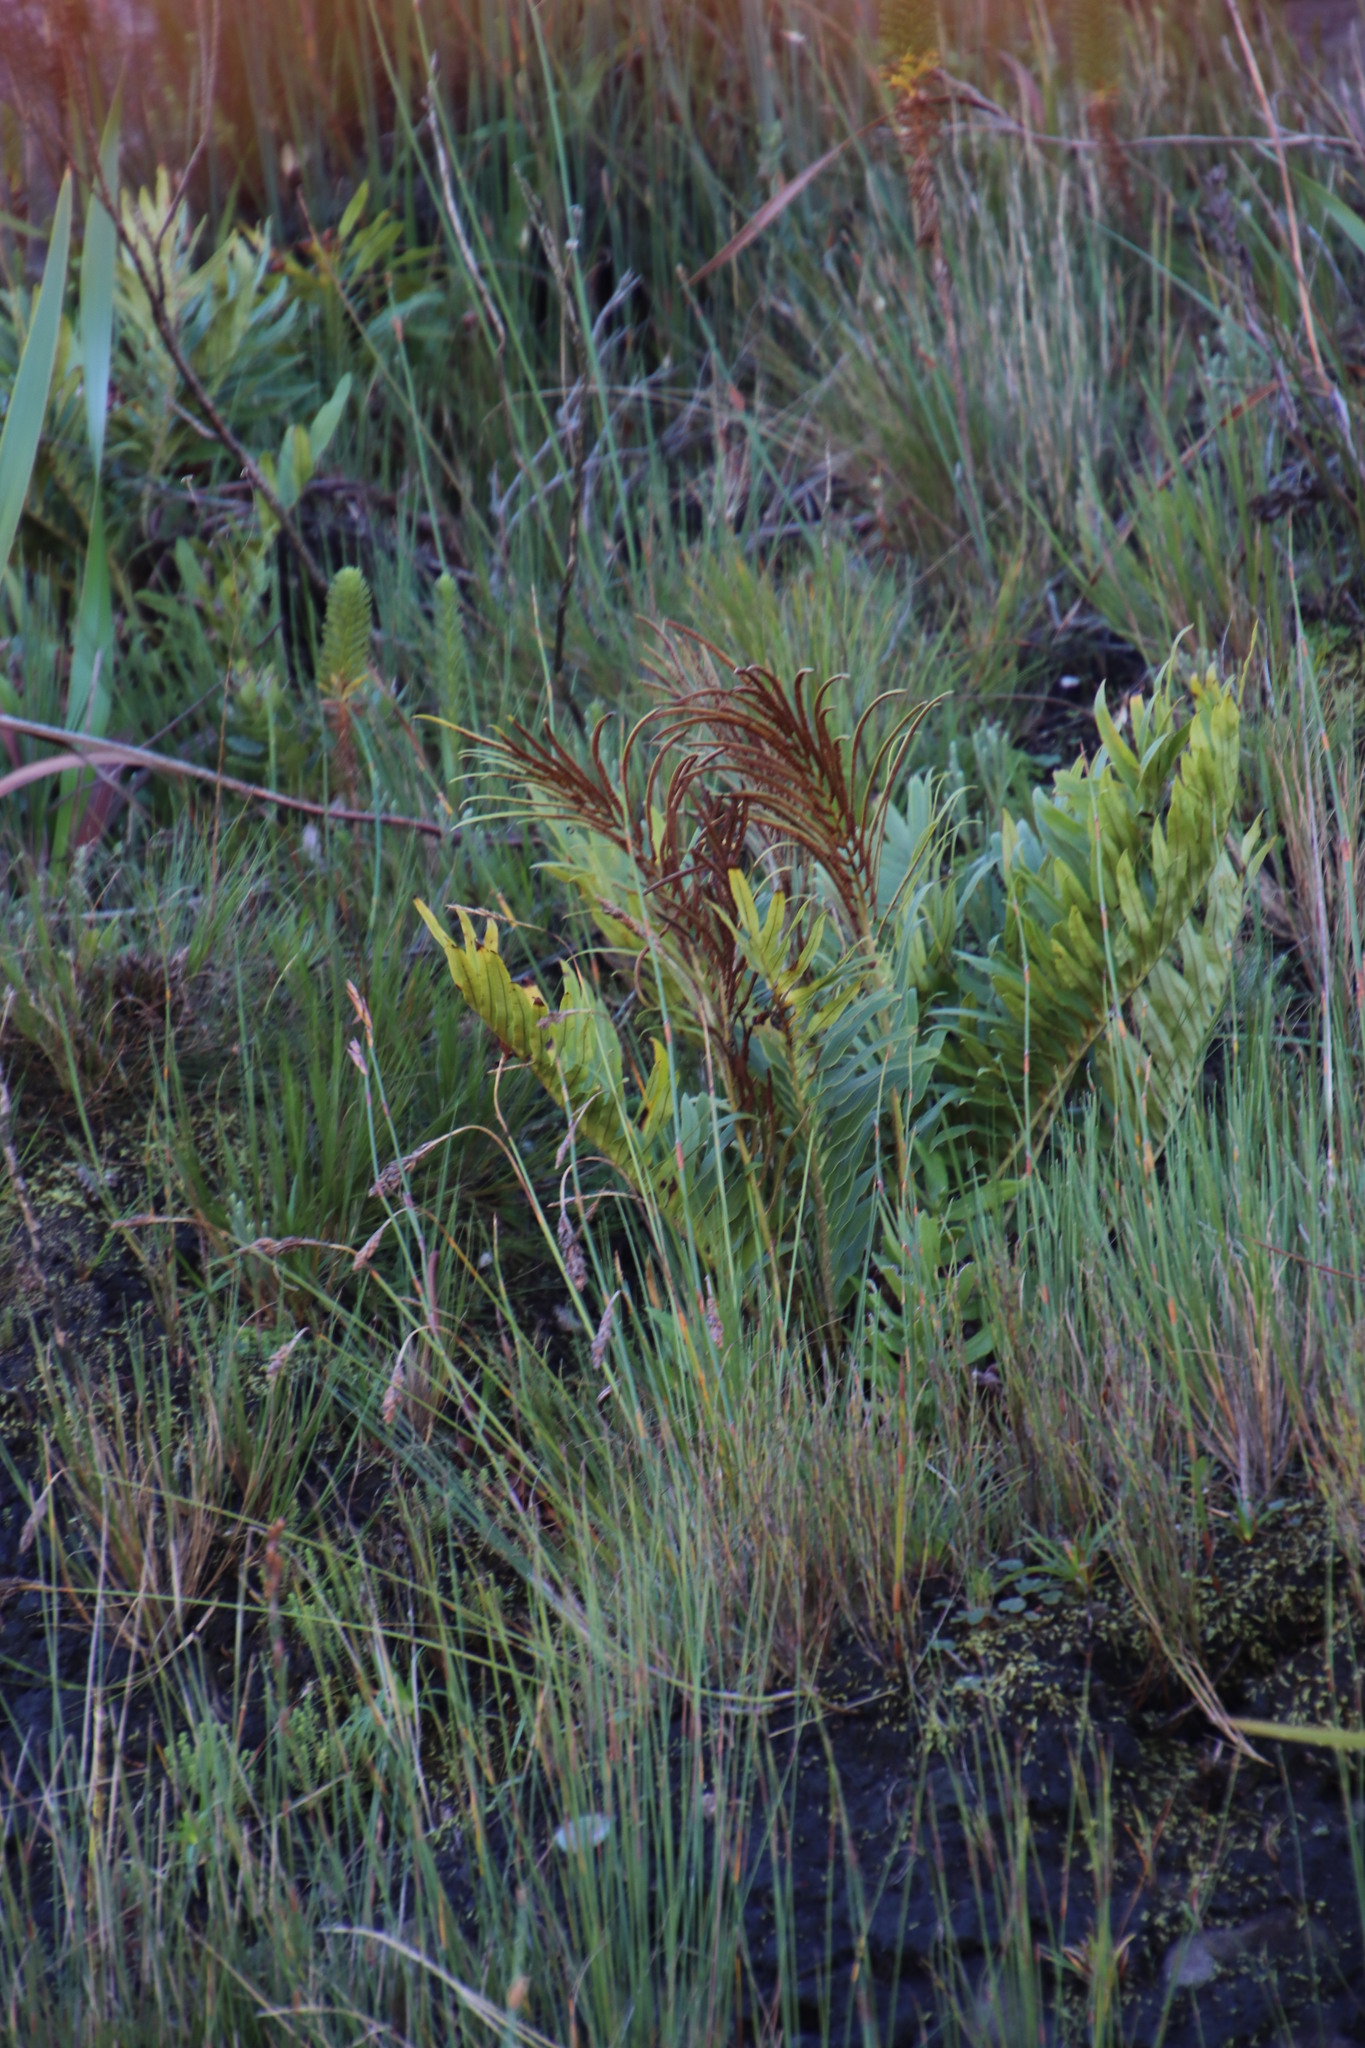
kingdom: Plantae
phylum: Tracheophyta
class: Polypodiopsida
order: Polypodiales
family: Blechnaceae
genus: Lomariocycas
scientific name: Lomariocycas tabularis
